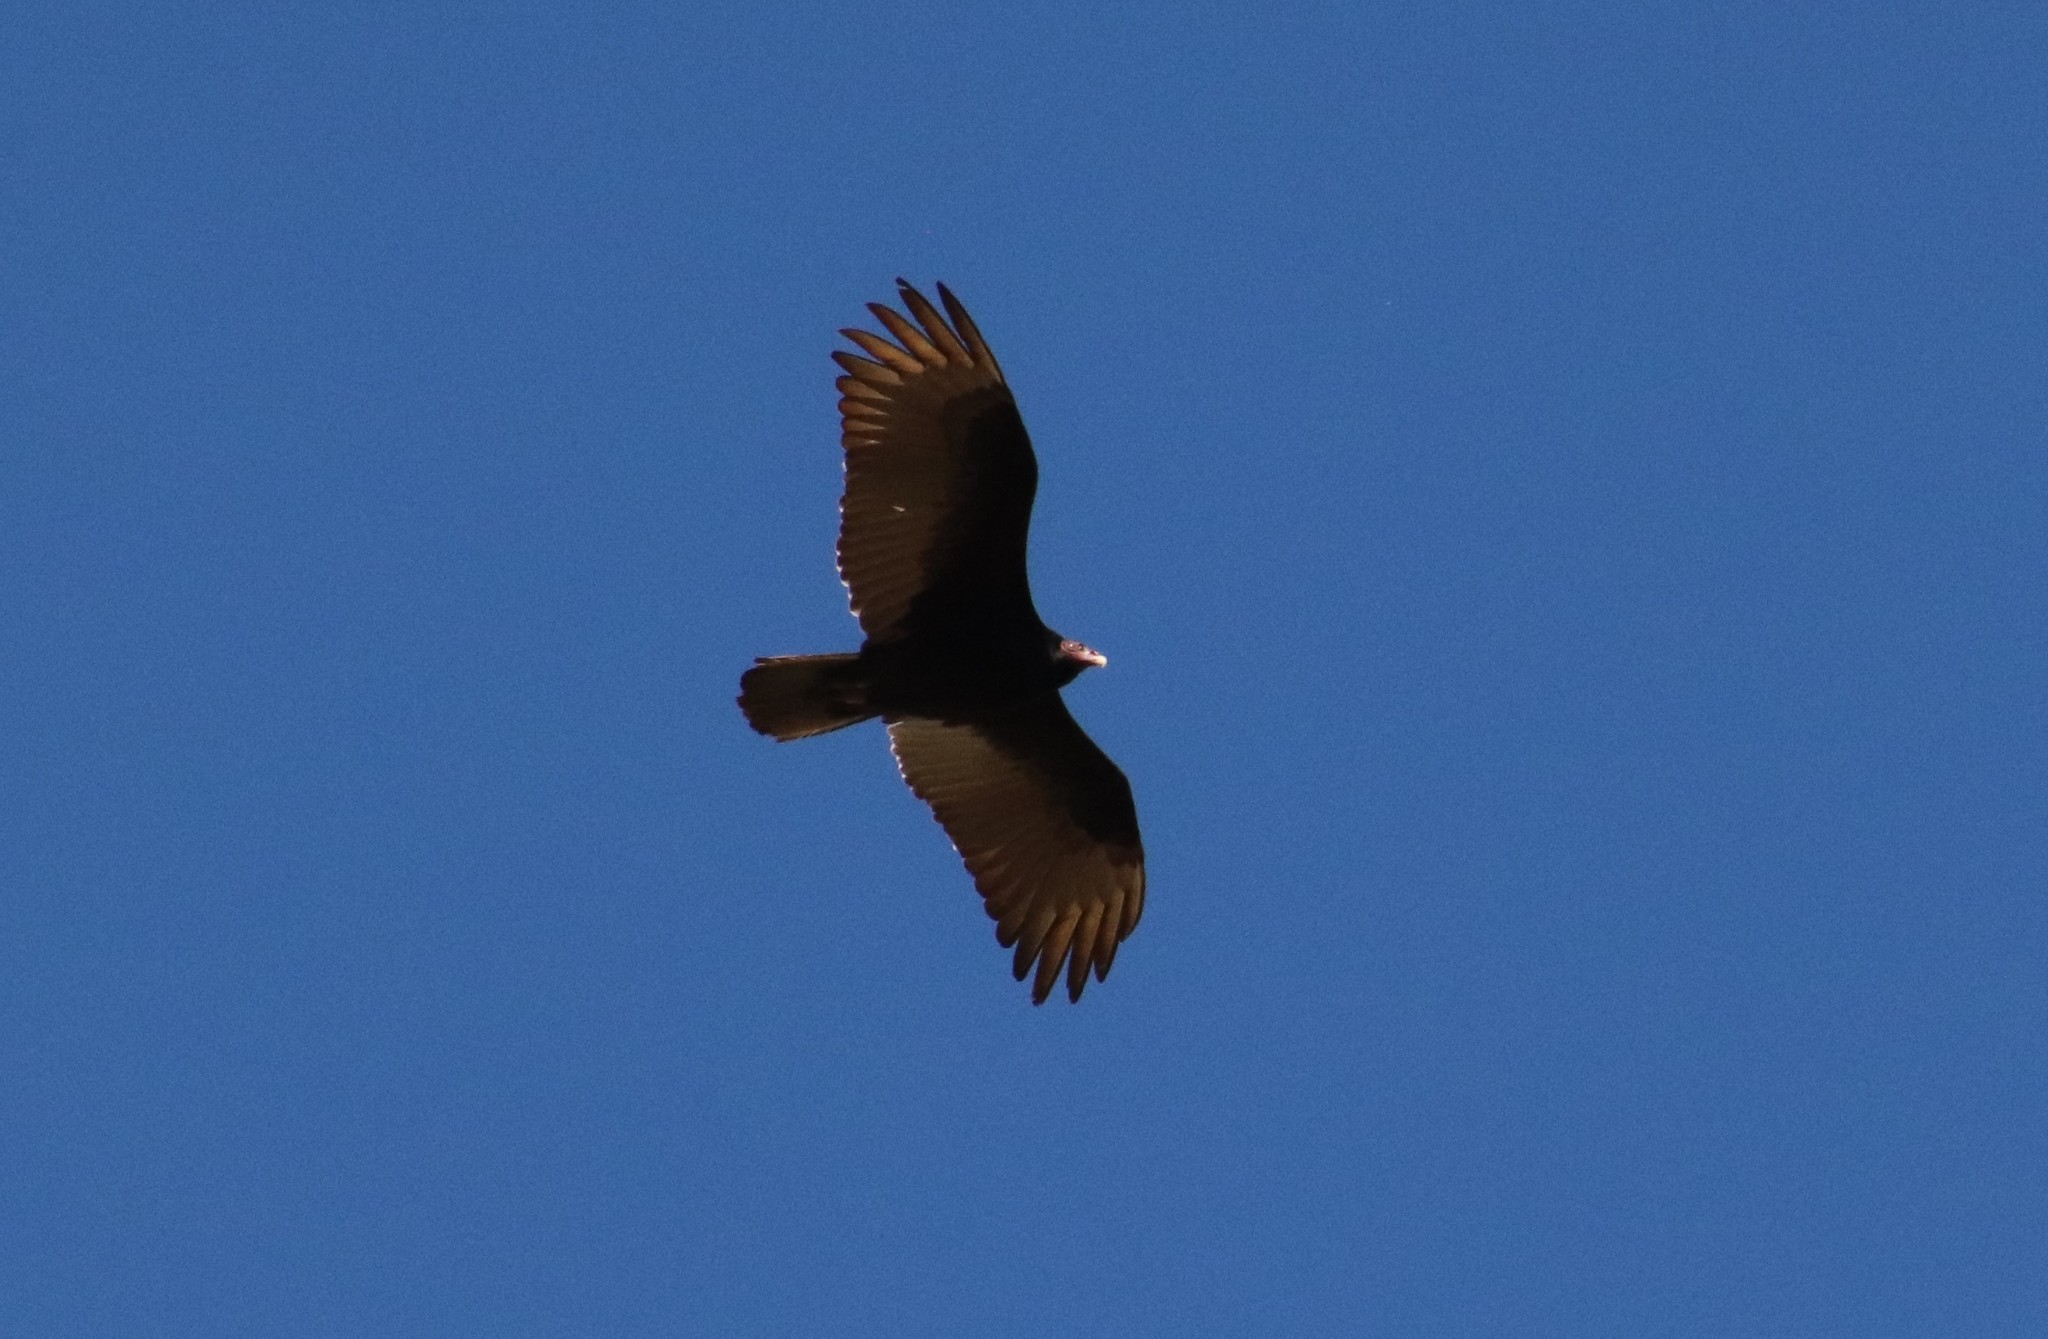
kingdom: Animalia
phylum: Chordata
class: Aves
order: Accipitriformes
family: Cathartidae
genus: Cathartes
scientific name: Cathartes aura
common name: Turkey vulture
